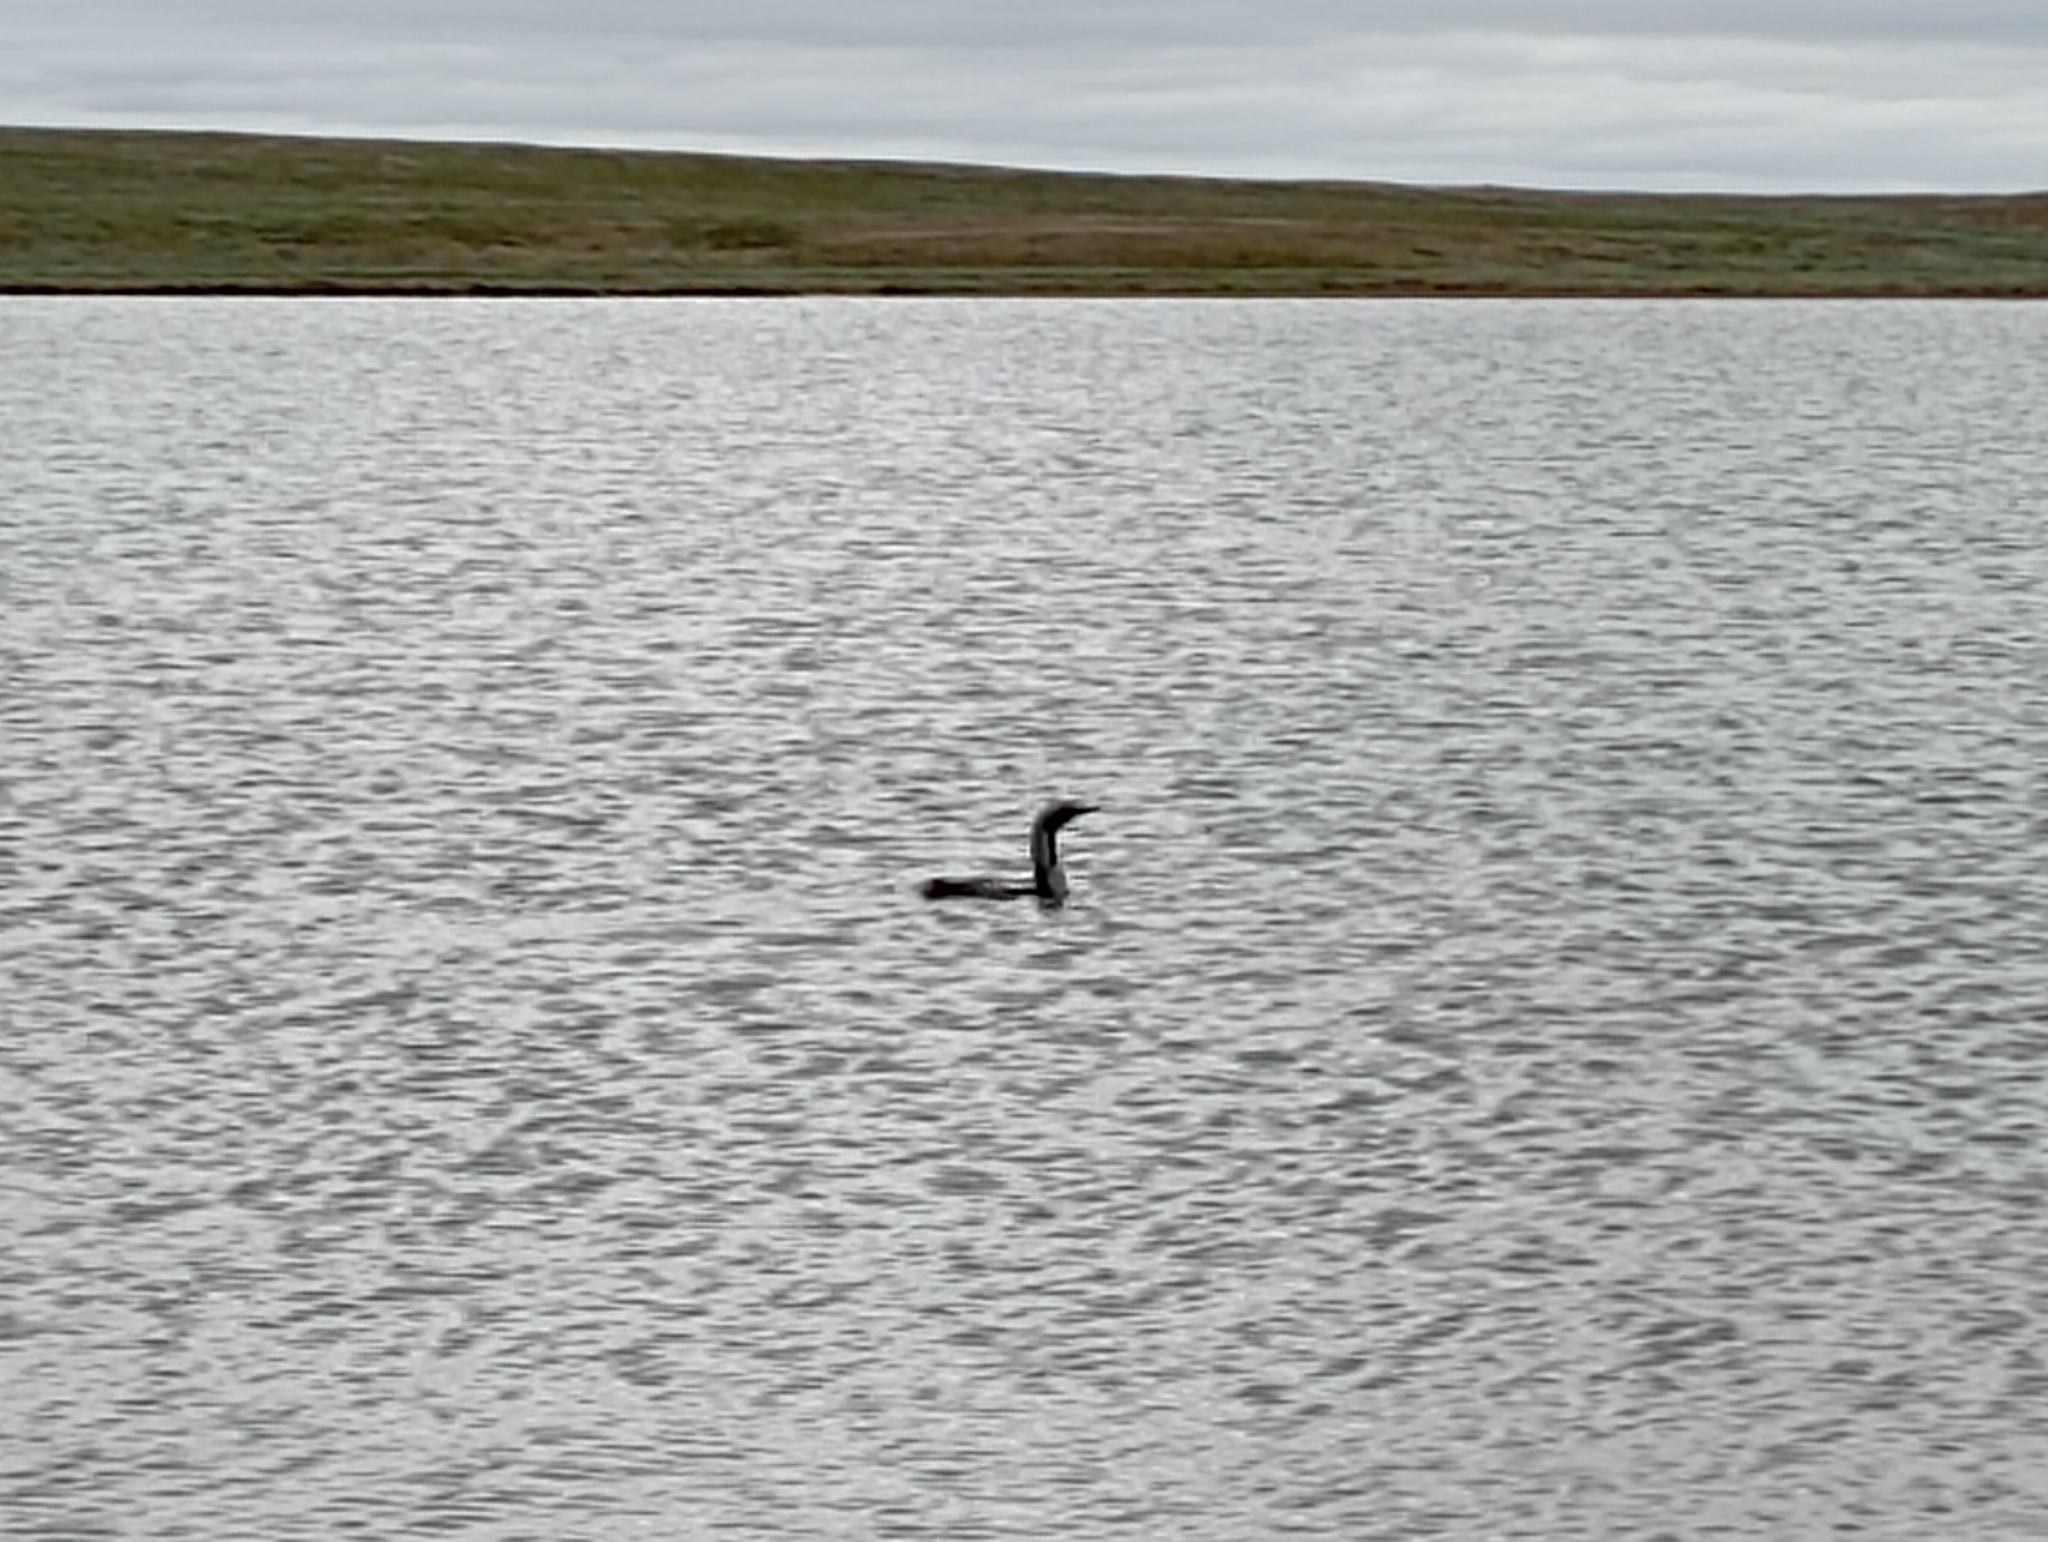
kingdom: Animalia
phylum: Chordata
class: Aves
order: Gaviiformes
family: Gaviidae
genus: Gavia
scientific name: Gavia arctica
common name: Black-throated loon
